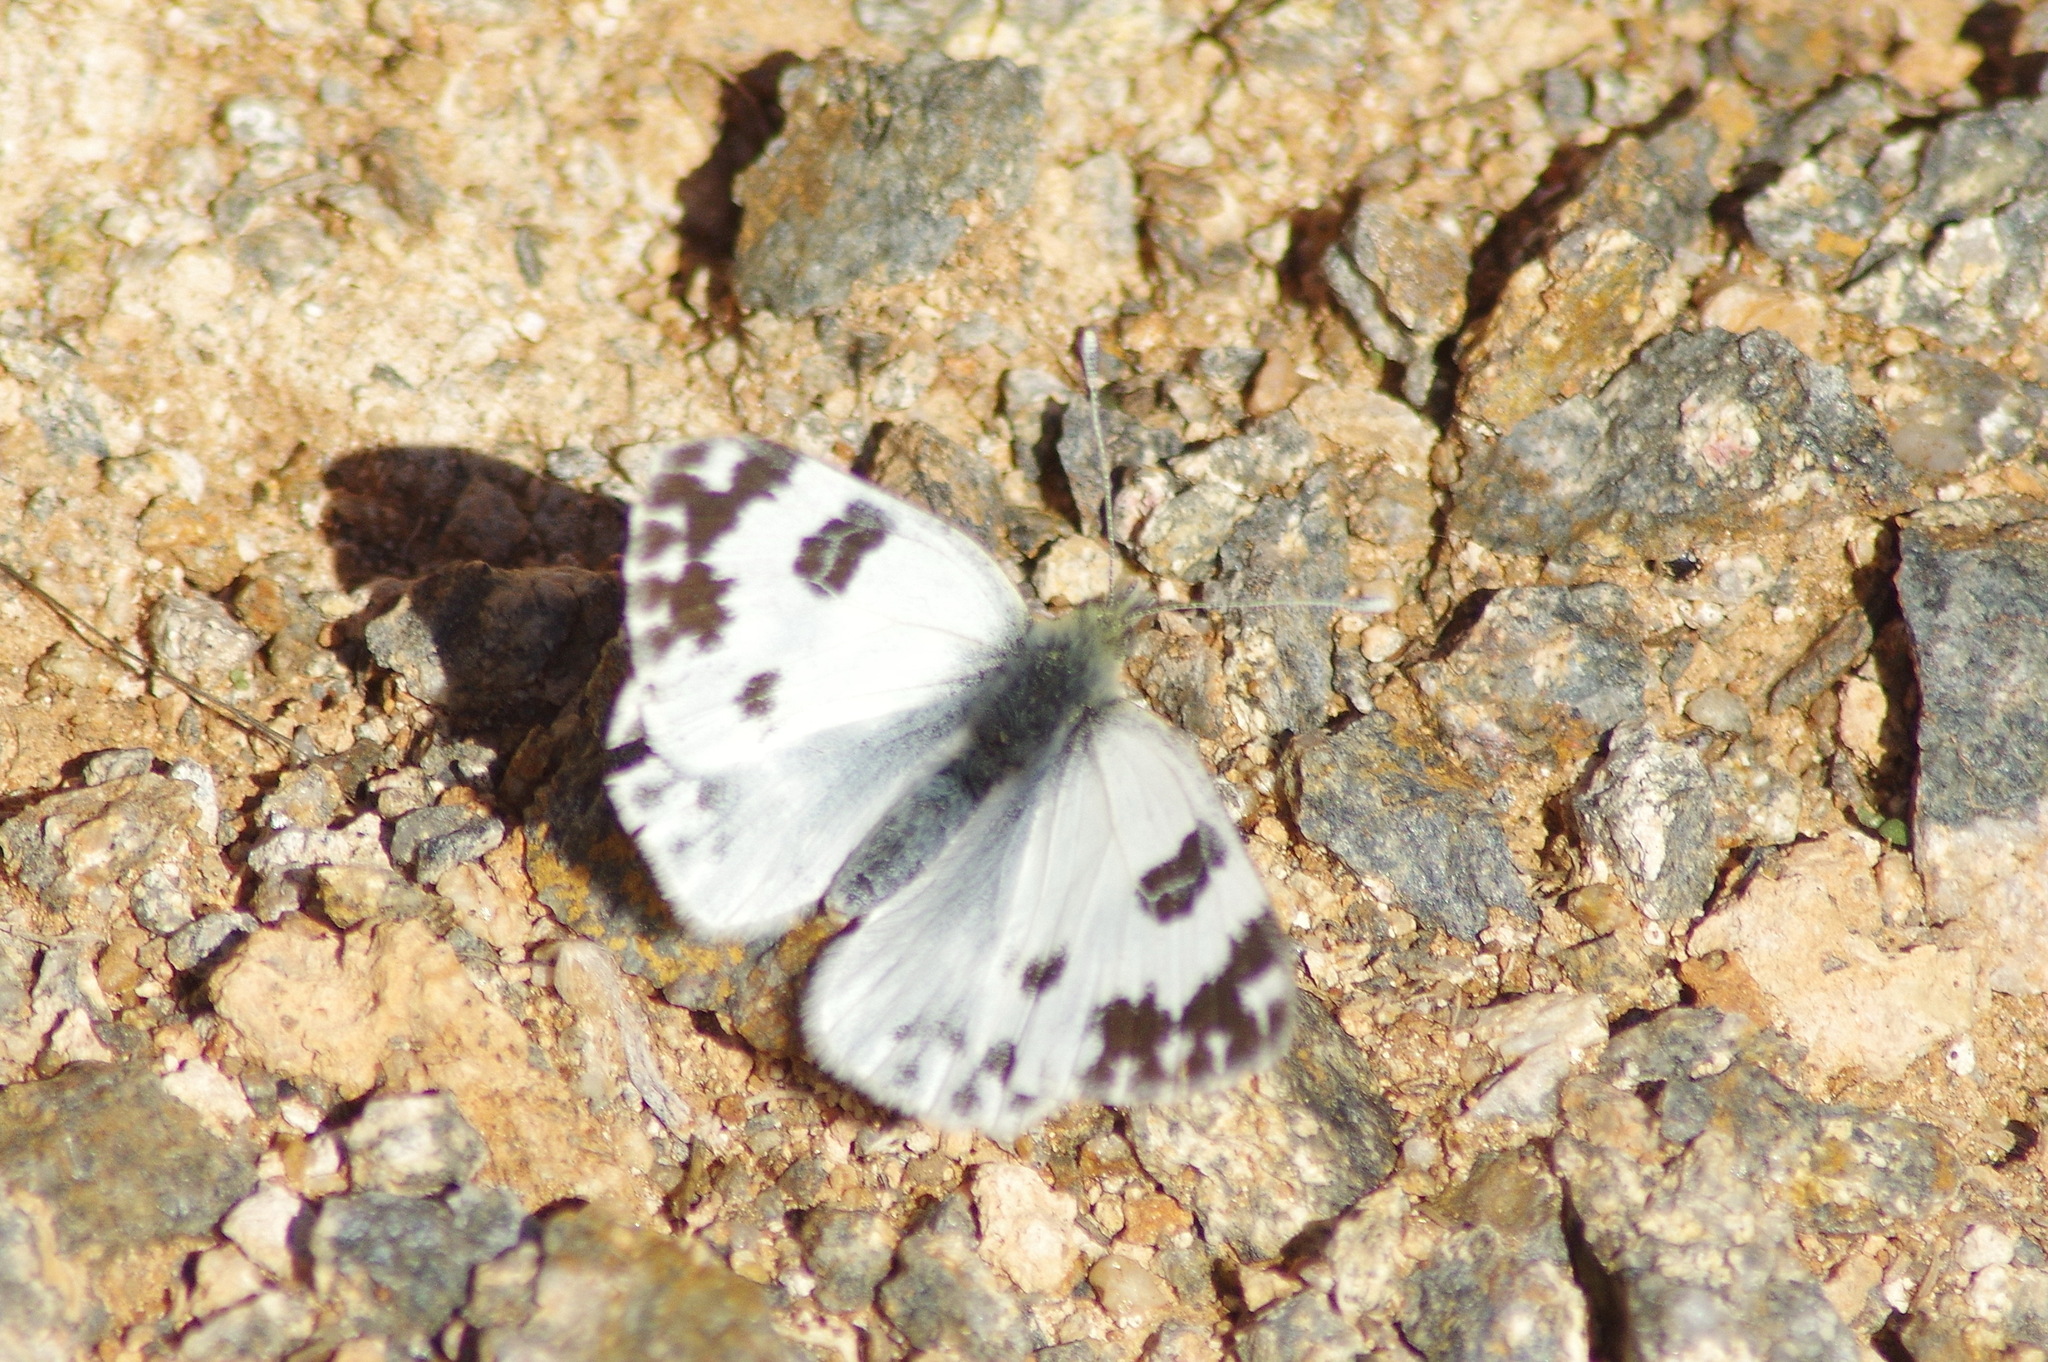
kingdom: Animalia
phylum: Arthropoda
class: Insecta
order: Lepidoptera
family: Pieridae
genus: Pontia
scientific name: Pontia daplidice
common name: Bath white
